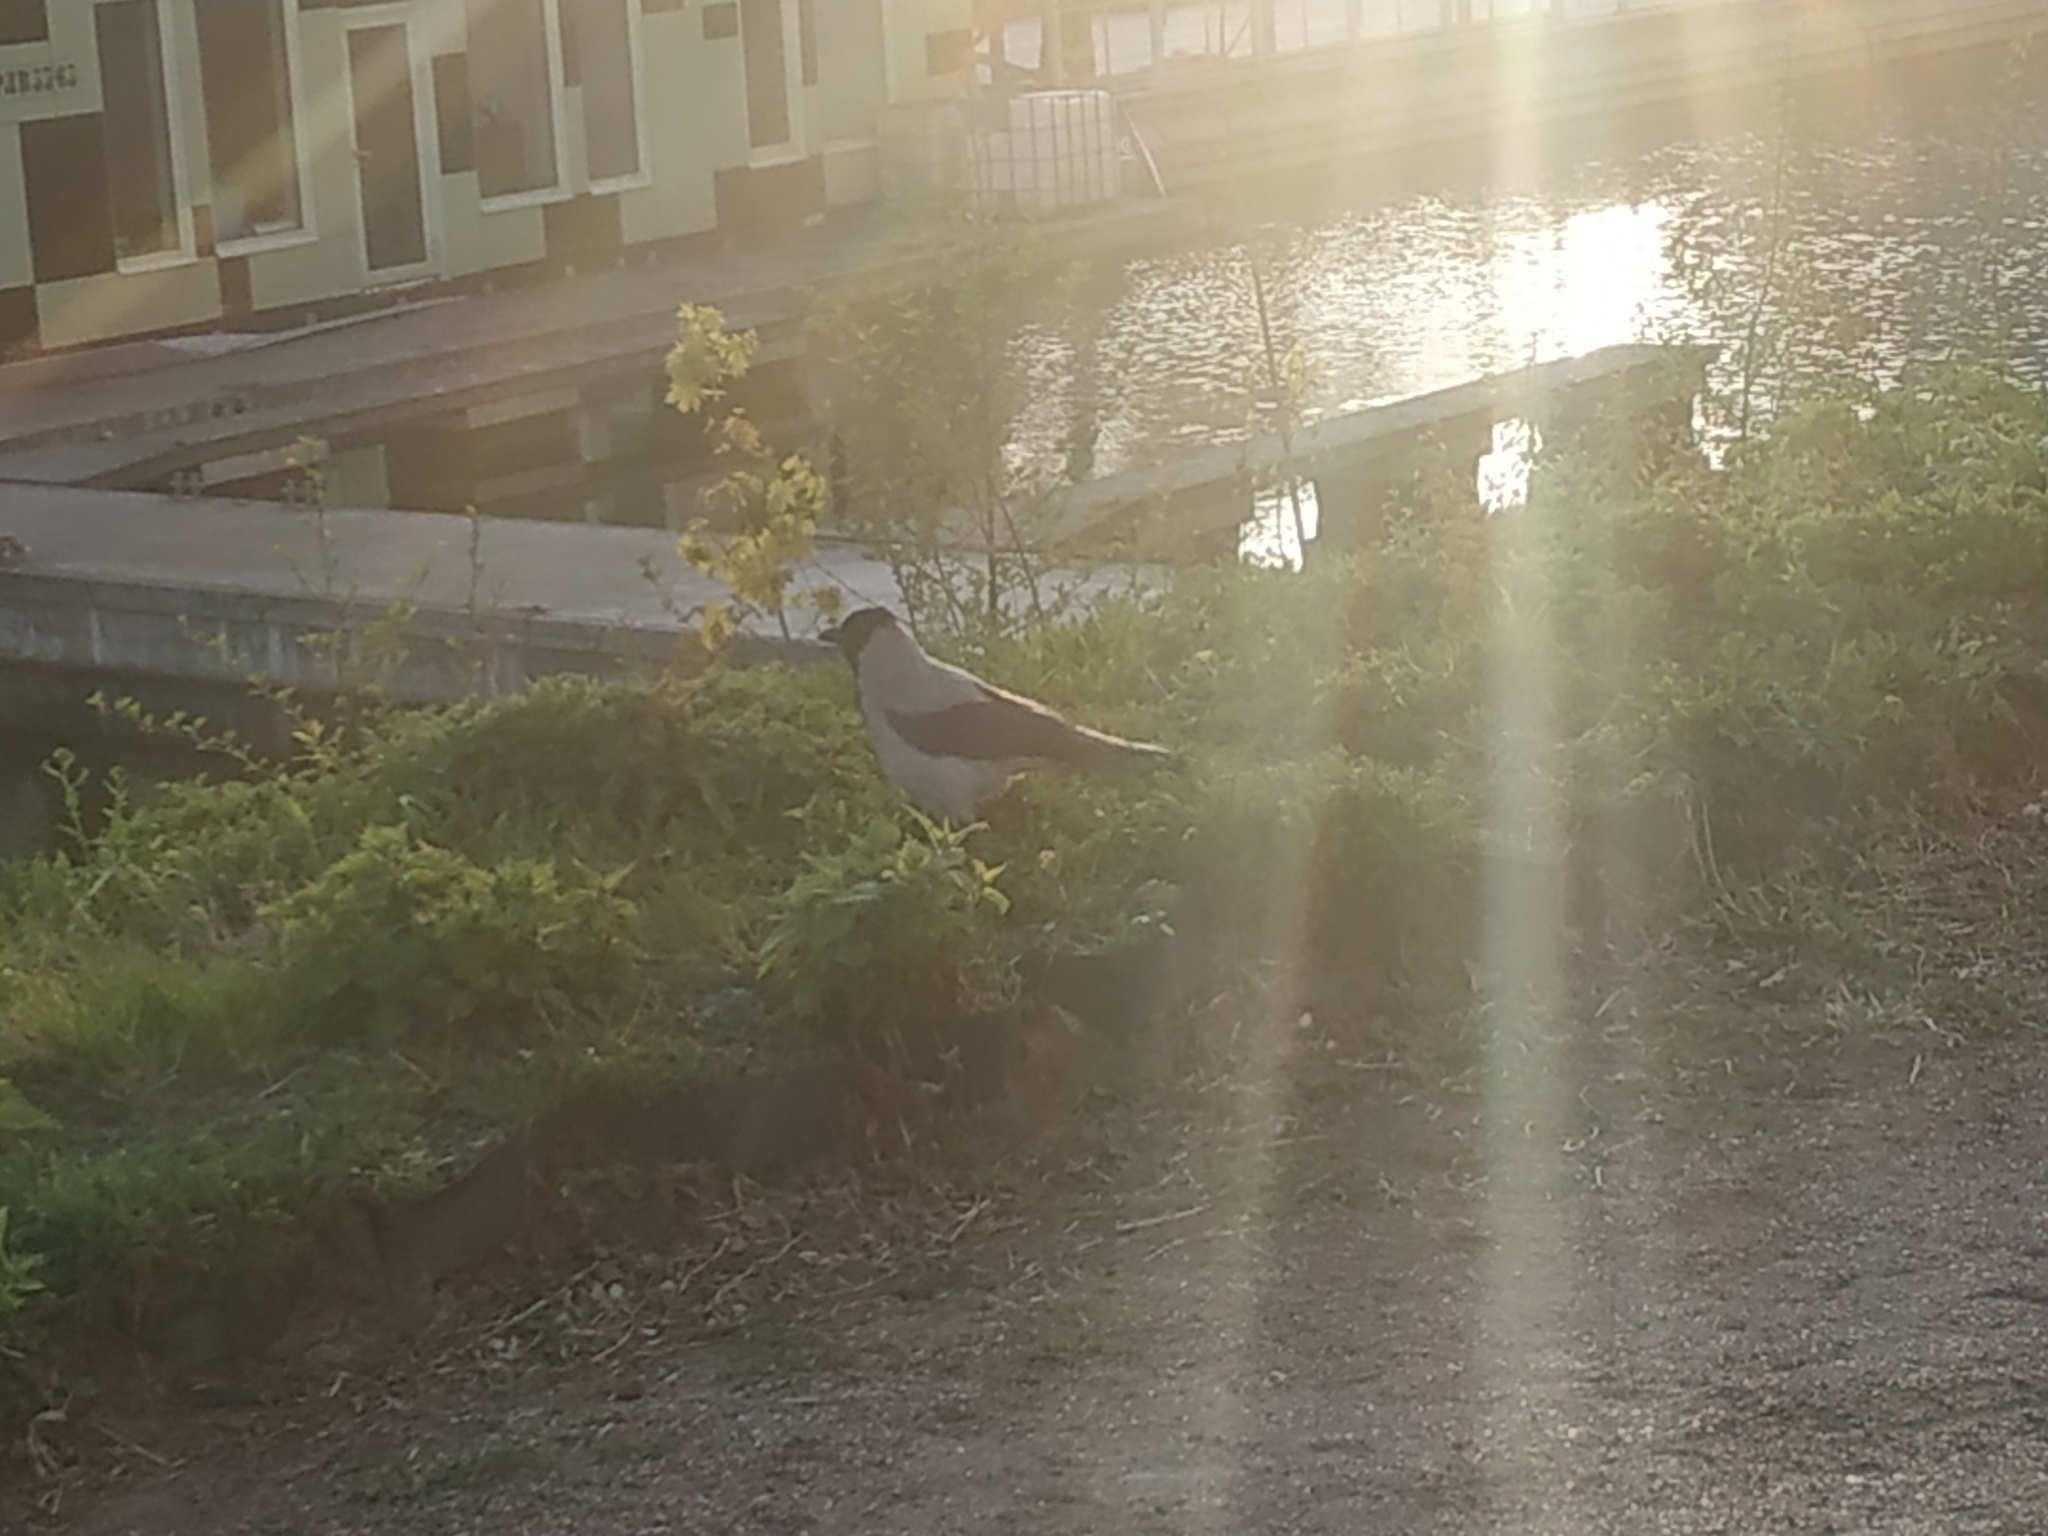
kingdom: Animalia
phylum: Chordata
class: Aves
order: Passeriformes
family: Corvidae
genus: Corvus
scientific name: Corvus cornix
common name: Hooded crow
